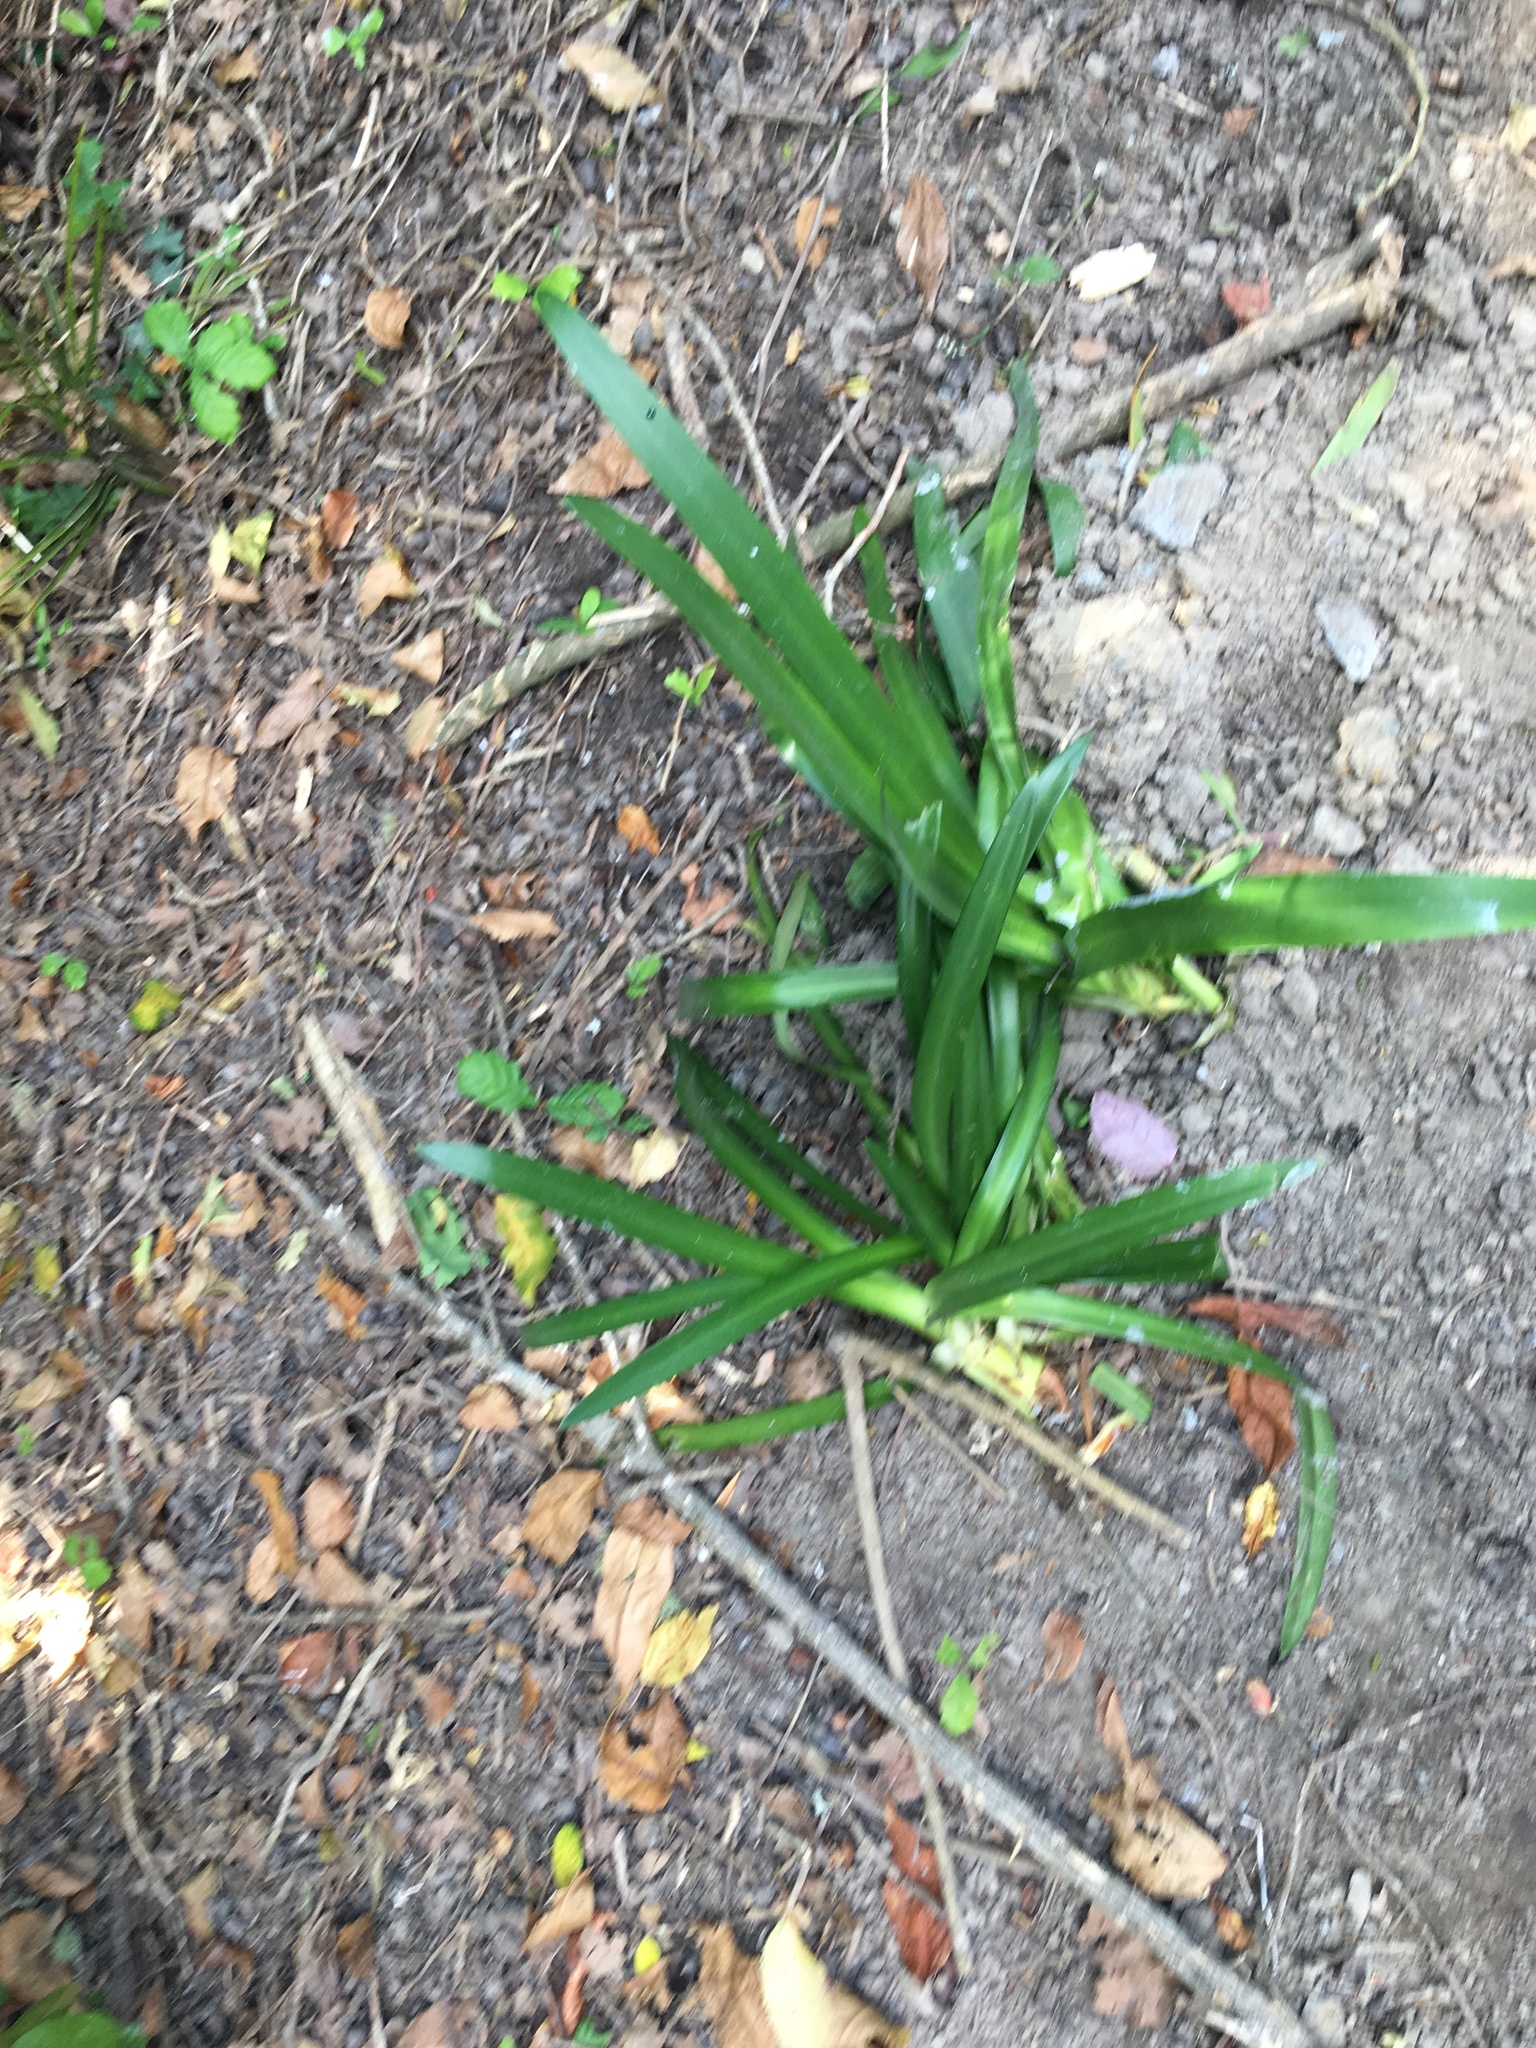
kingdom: Plantae
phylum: Tracheophyta
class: Liliopsida
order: Asparagales
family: Amaryllidaceae
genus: Agapanthus
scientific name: Agapanthus praecox
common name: African-lily
